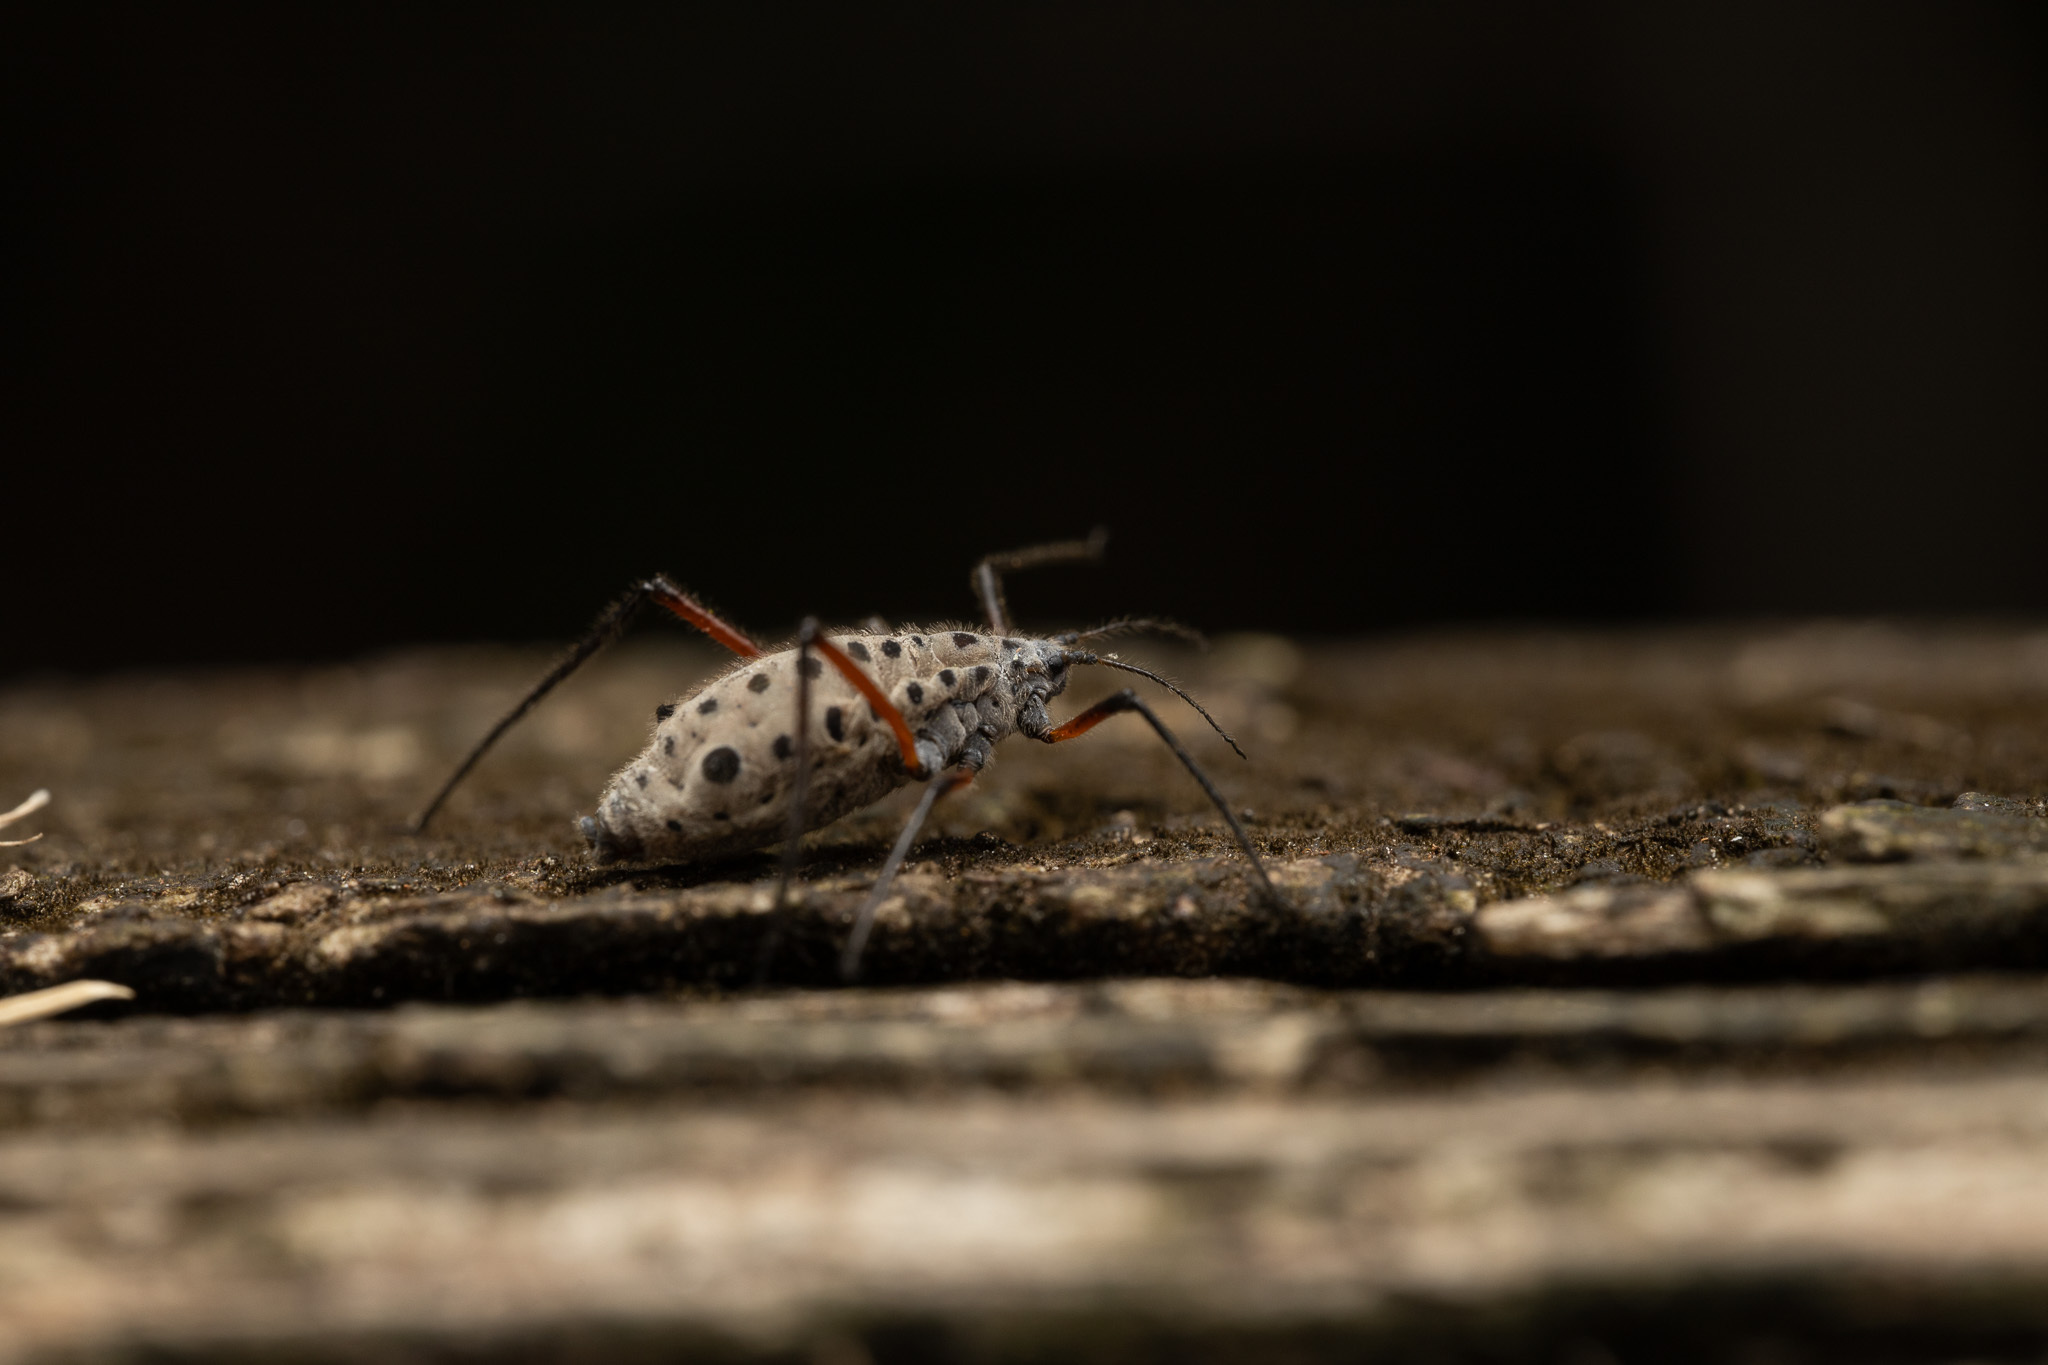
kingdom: Animalia
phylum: Arthropoda
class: Insecta
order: Hemiptera
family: Aphididae
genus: Longistigma
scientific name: Longistigma caryae
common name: Giant bark aphid
